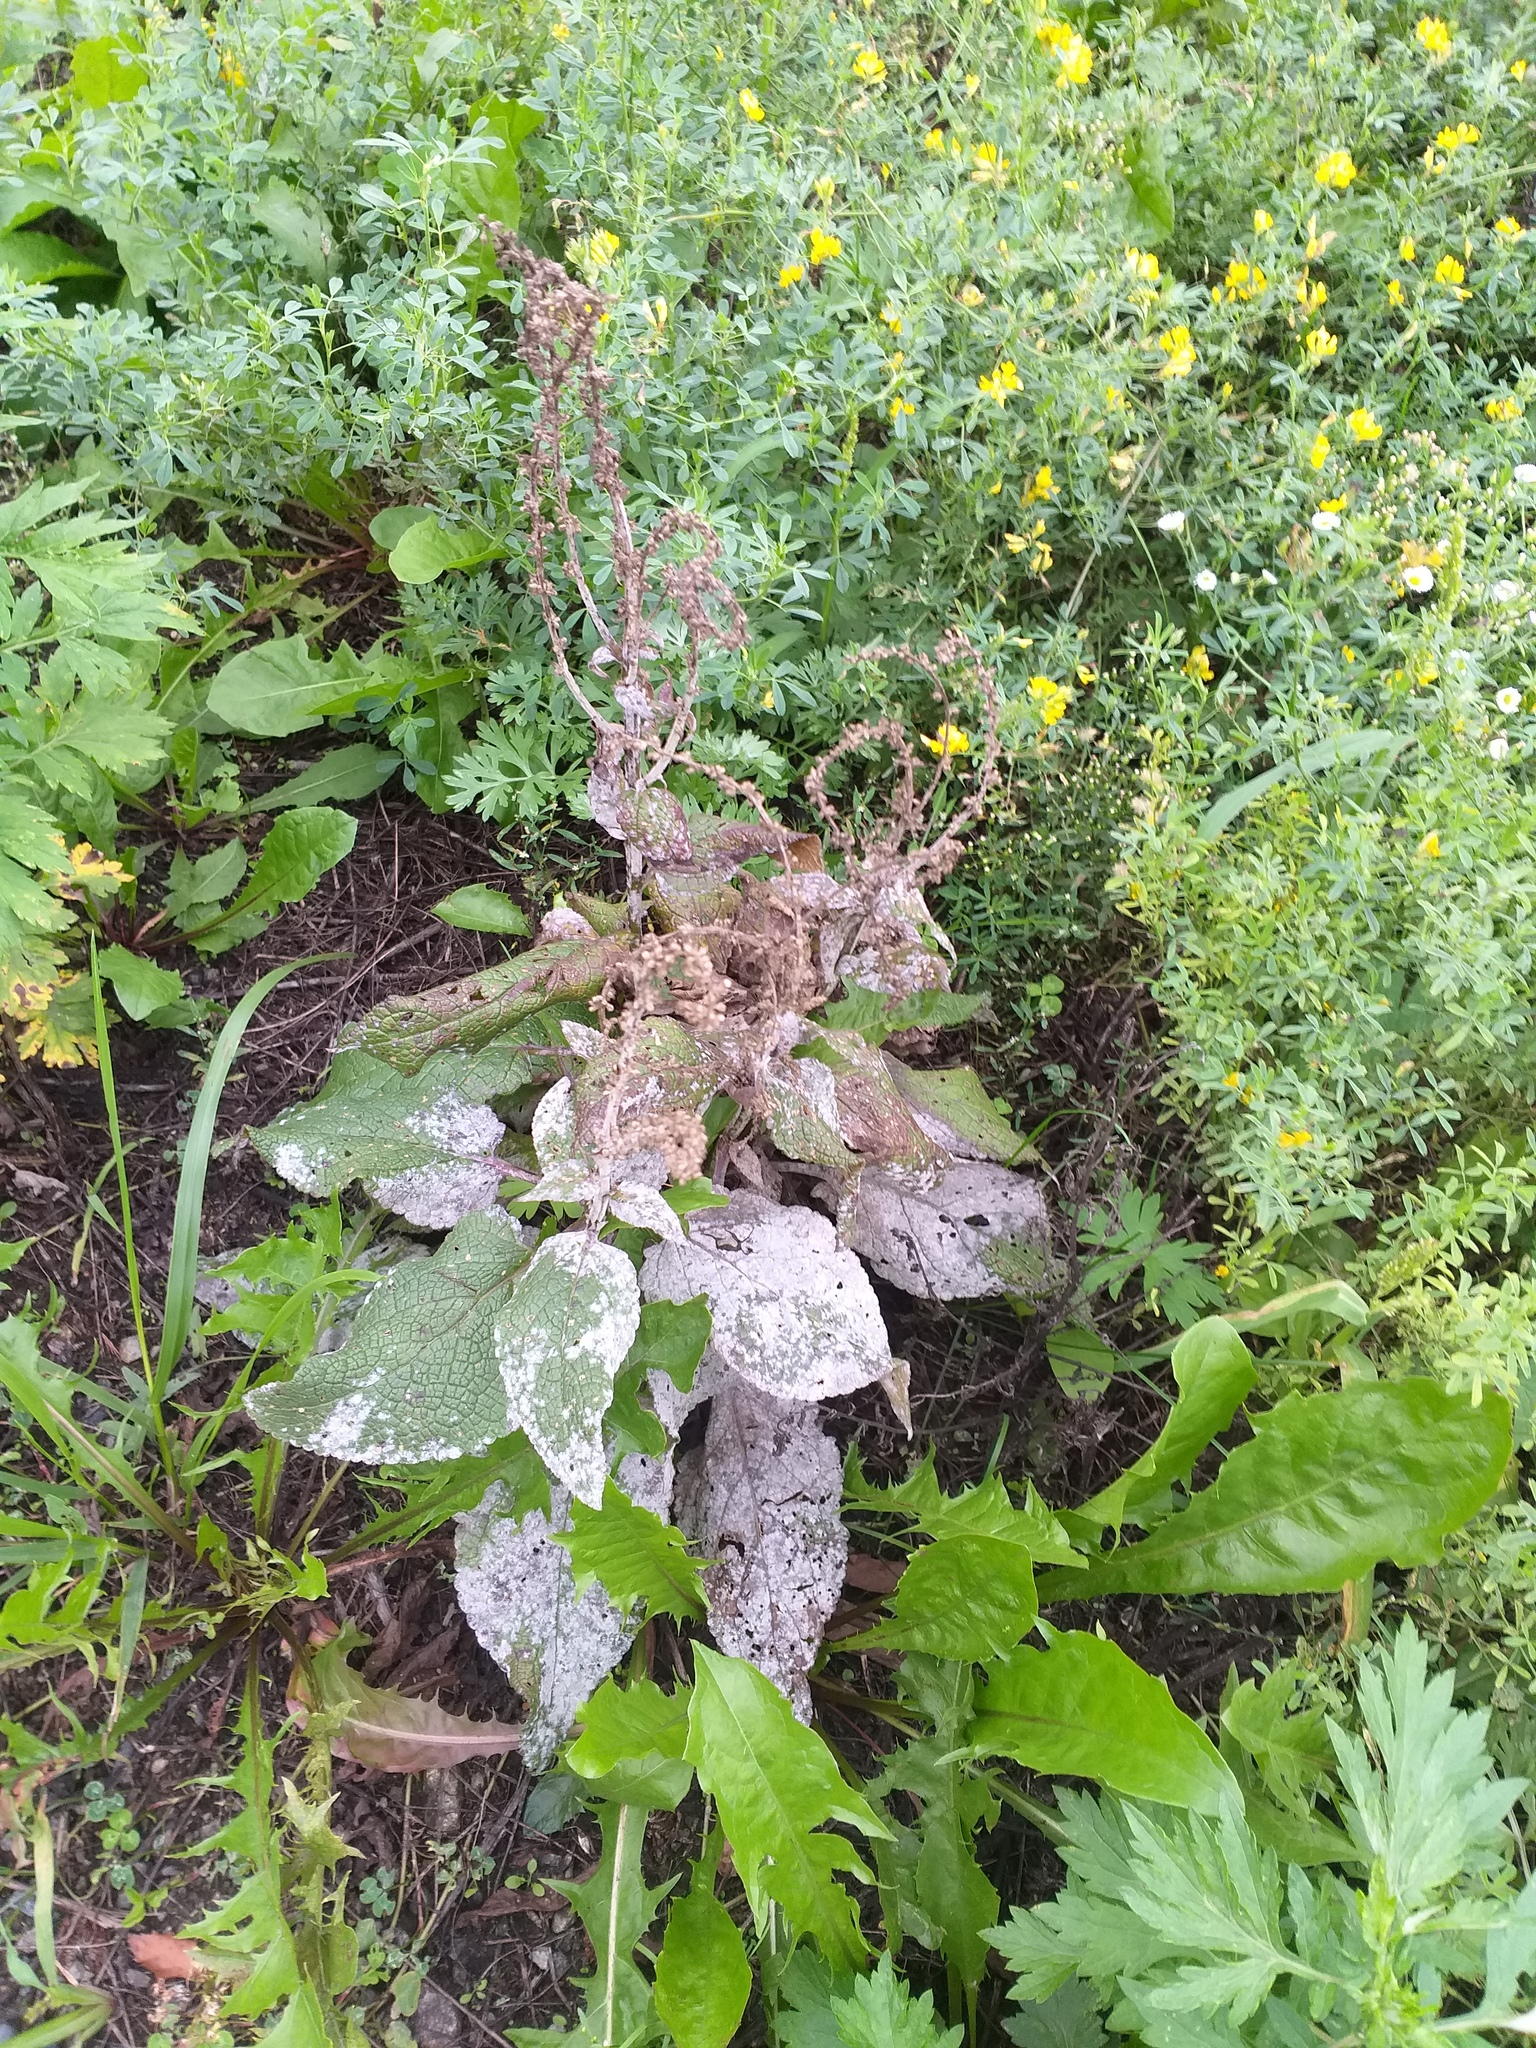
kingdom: Plantae
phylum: Tracheophyta
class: Magnoliopsida
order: Lamiales
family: Scrophulariaceae
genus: Verbascum
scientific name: Verbascum nigrum
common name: Dark mullein
